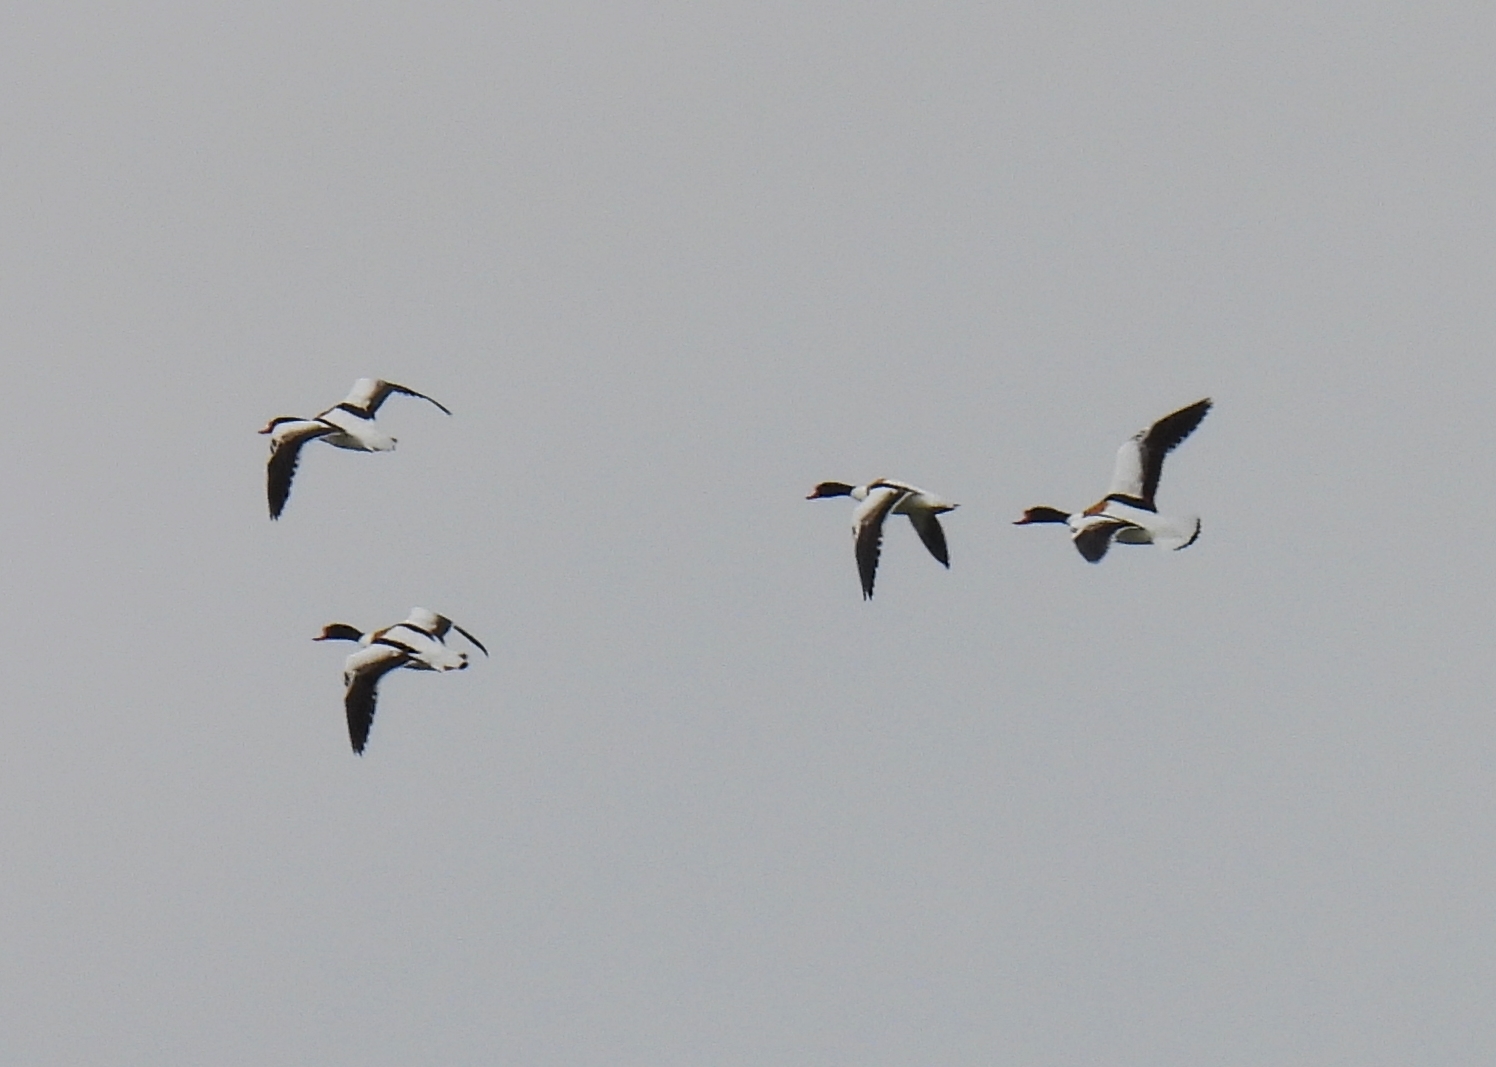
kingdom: Animalia
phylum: Chordata
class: Aves
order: Anseriformes
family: Anatidae
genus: Tadorna
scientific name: Tadorna tadorna
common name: Common shelduck
